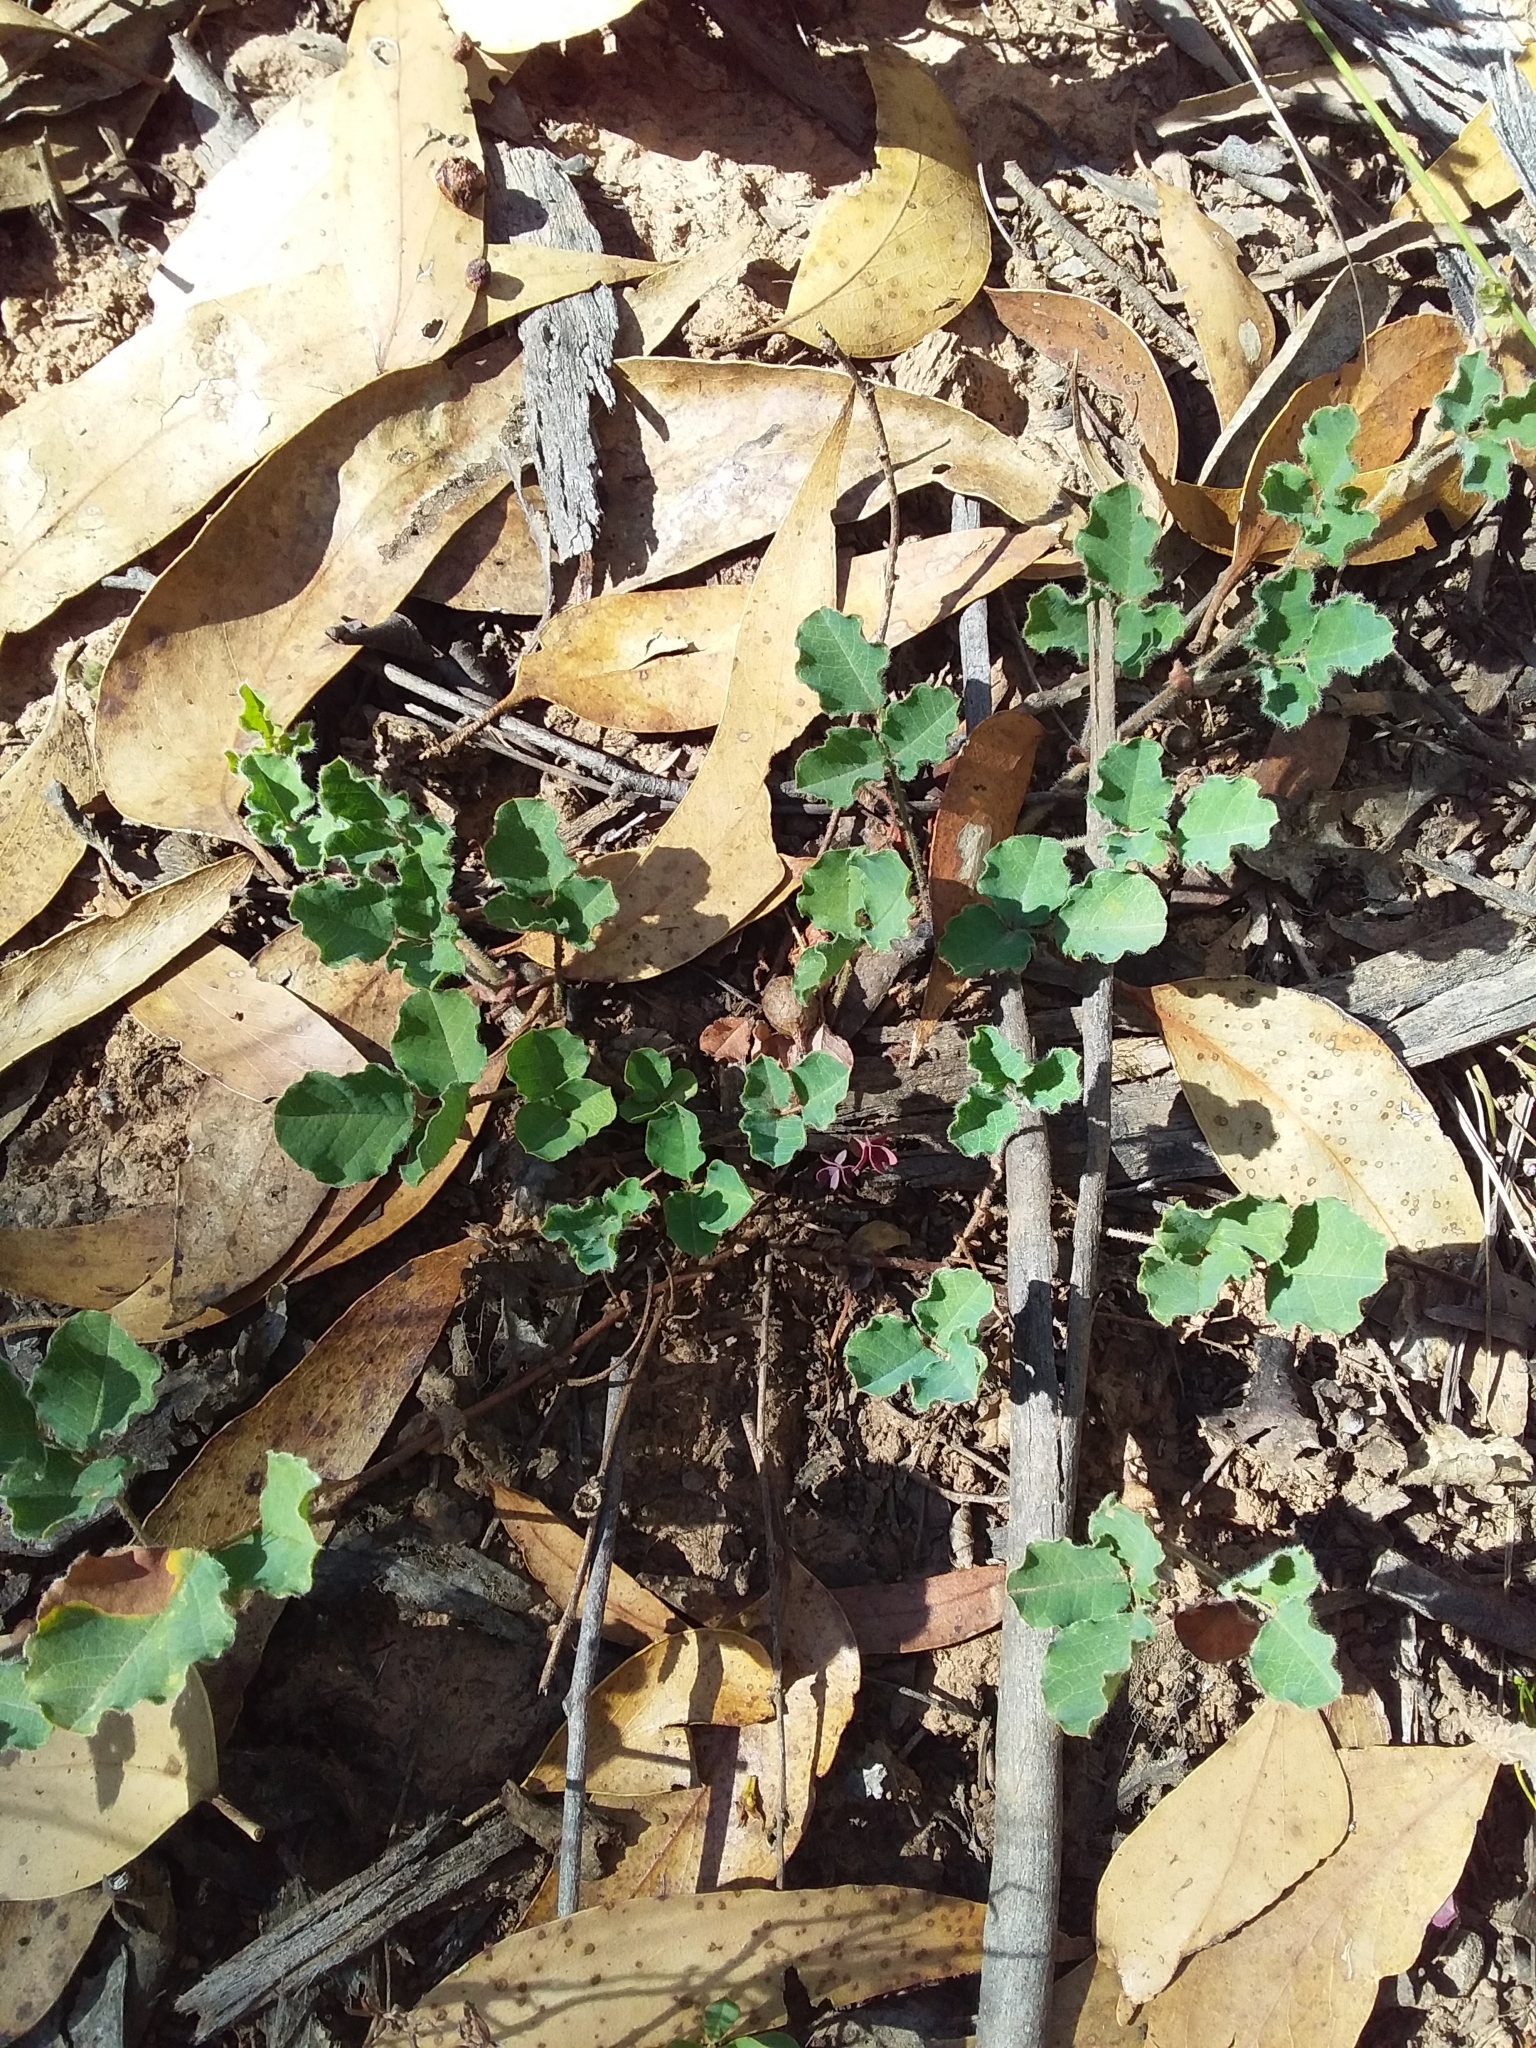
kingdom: Plantae
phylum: Tracheophyta
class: Magnoliopsida
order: Fabales
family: Fabaceae
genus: Kennedia
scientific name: Kennedia prostrata
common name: Running-postman
